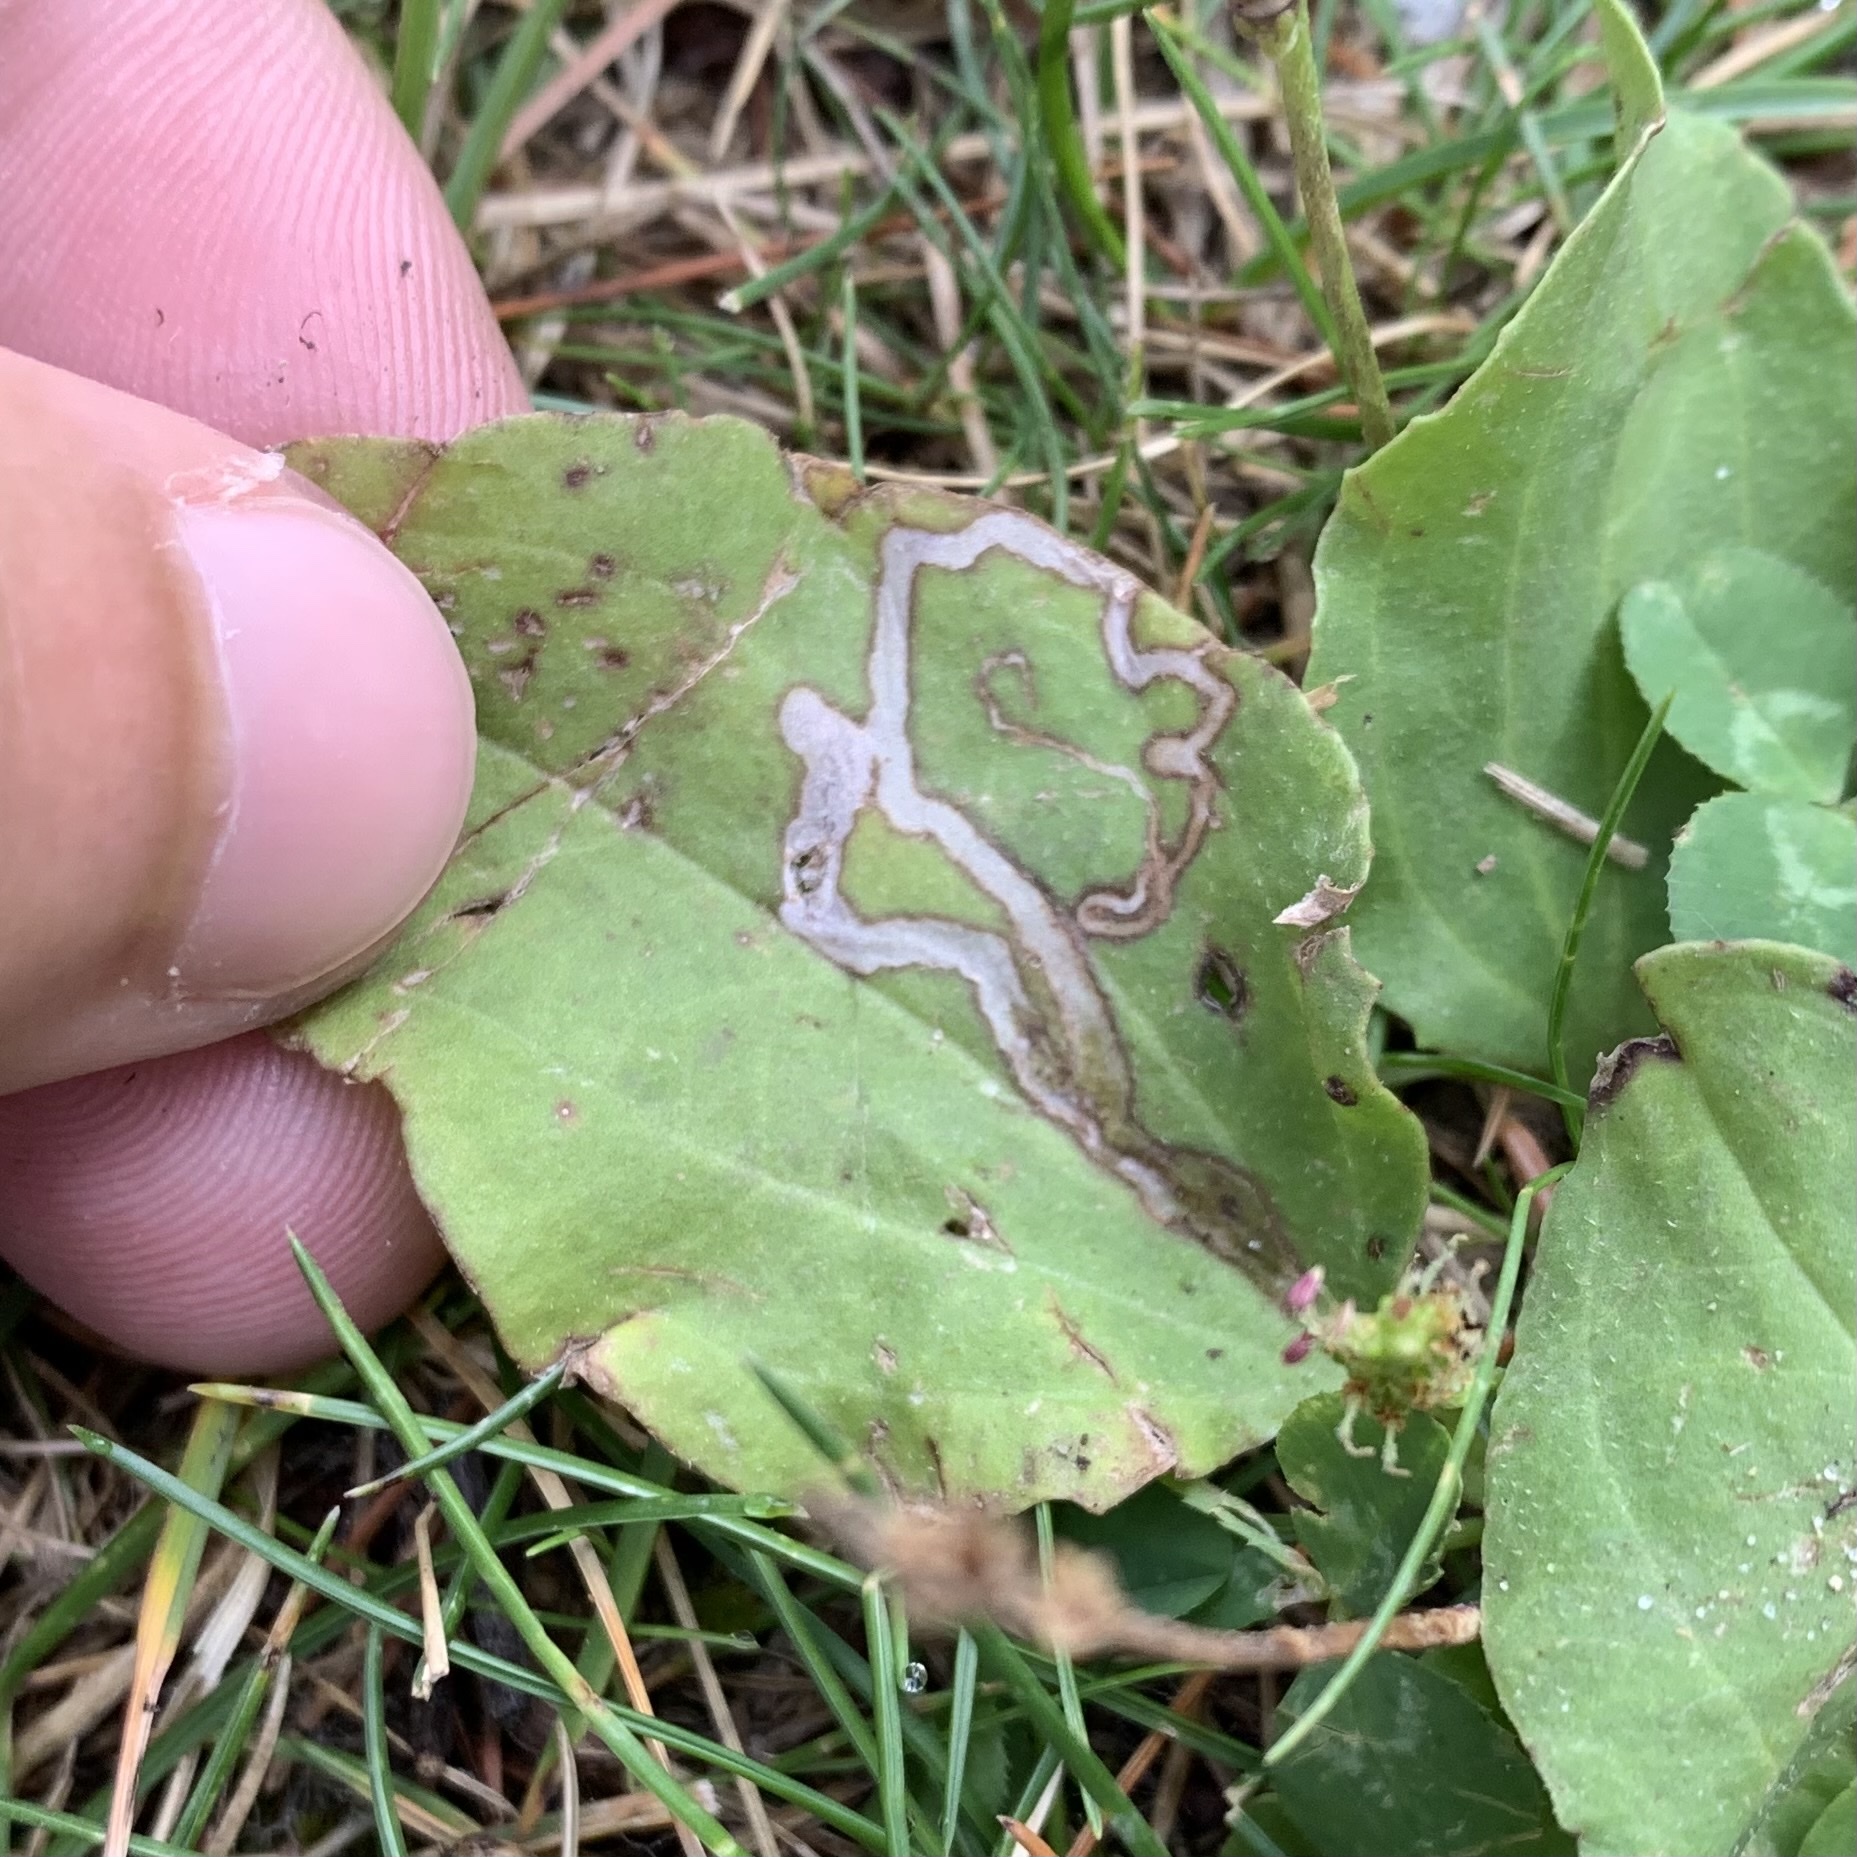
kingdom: Animalia
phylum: Arthropoda
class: Insecta
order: Diptera
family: Agromyzidae
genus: Phytomyza
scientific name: Phytomyza plantaginis
